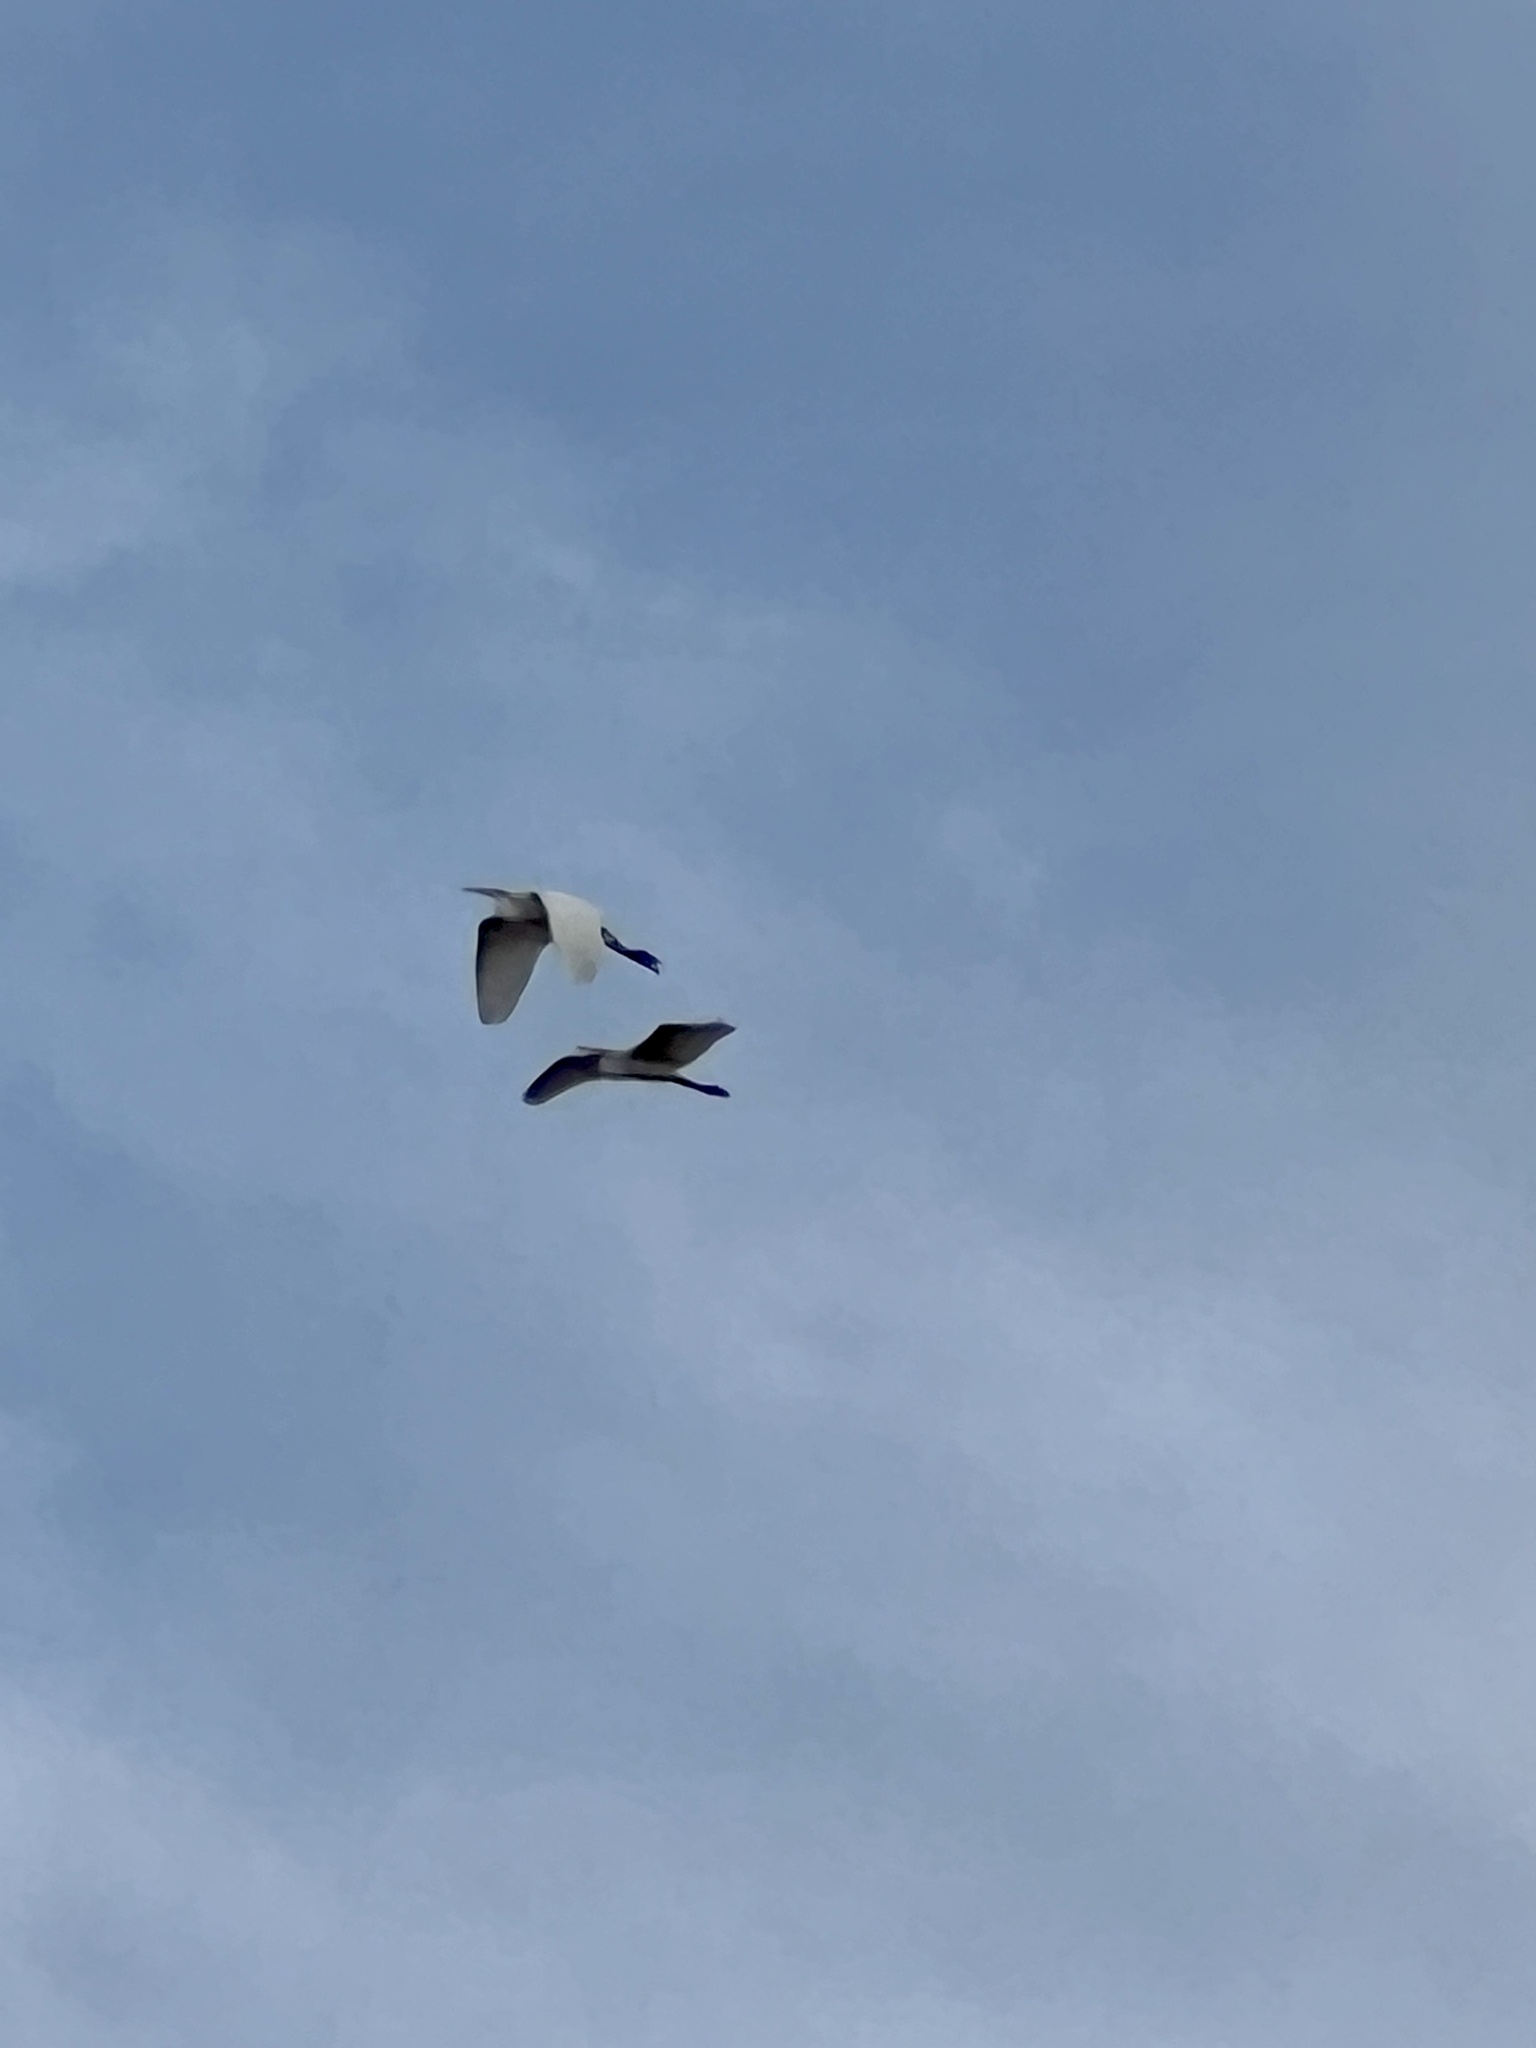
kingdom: Animalia
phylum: Chordata
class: Aves
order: Pelecaniformes
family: Ardeidae
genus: Ardea
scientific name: Ardea alba
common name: Great egret
